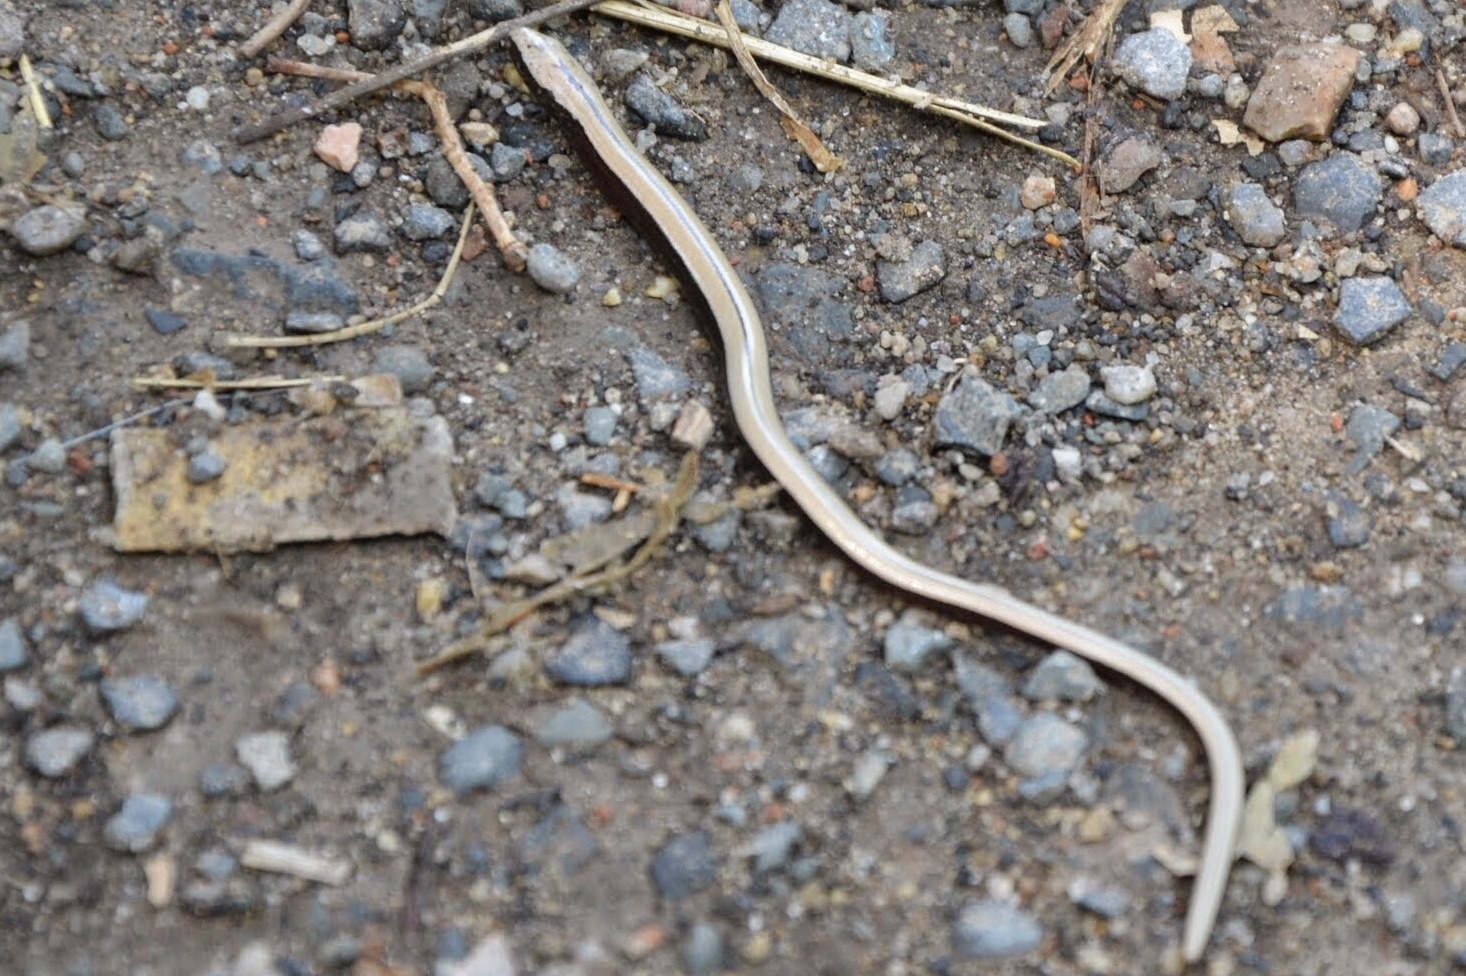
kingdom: Animalia
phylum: Chordata
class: Squamata
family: Anguidae
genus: Anguis
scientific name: Anguis fragilis
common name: Slow worm
